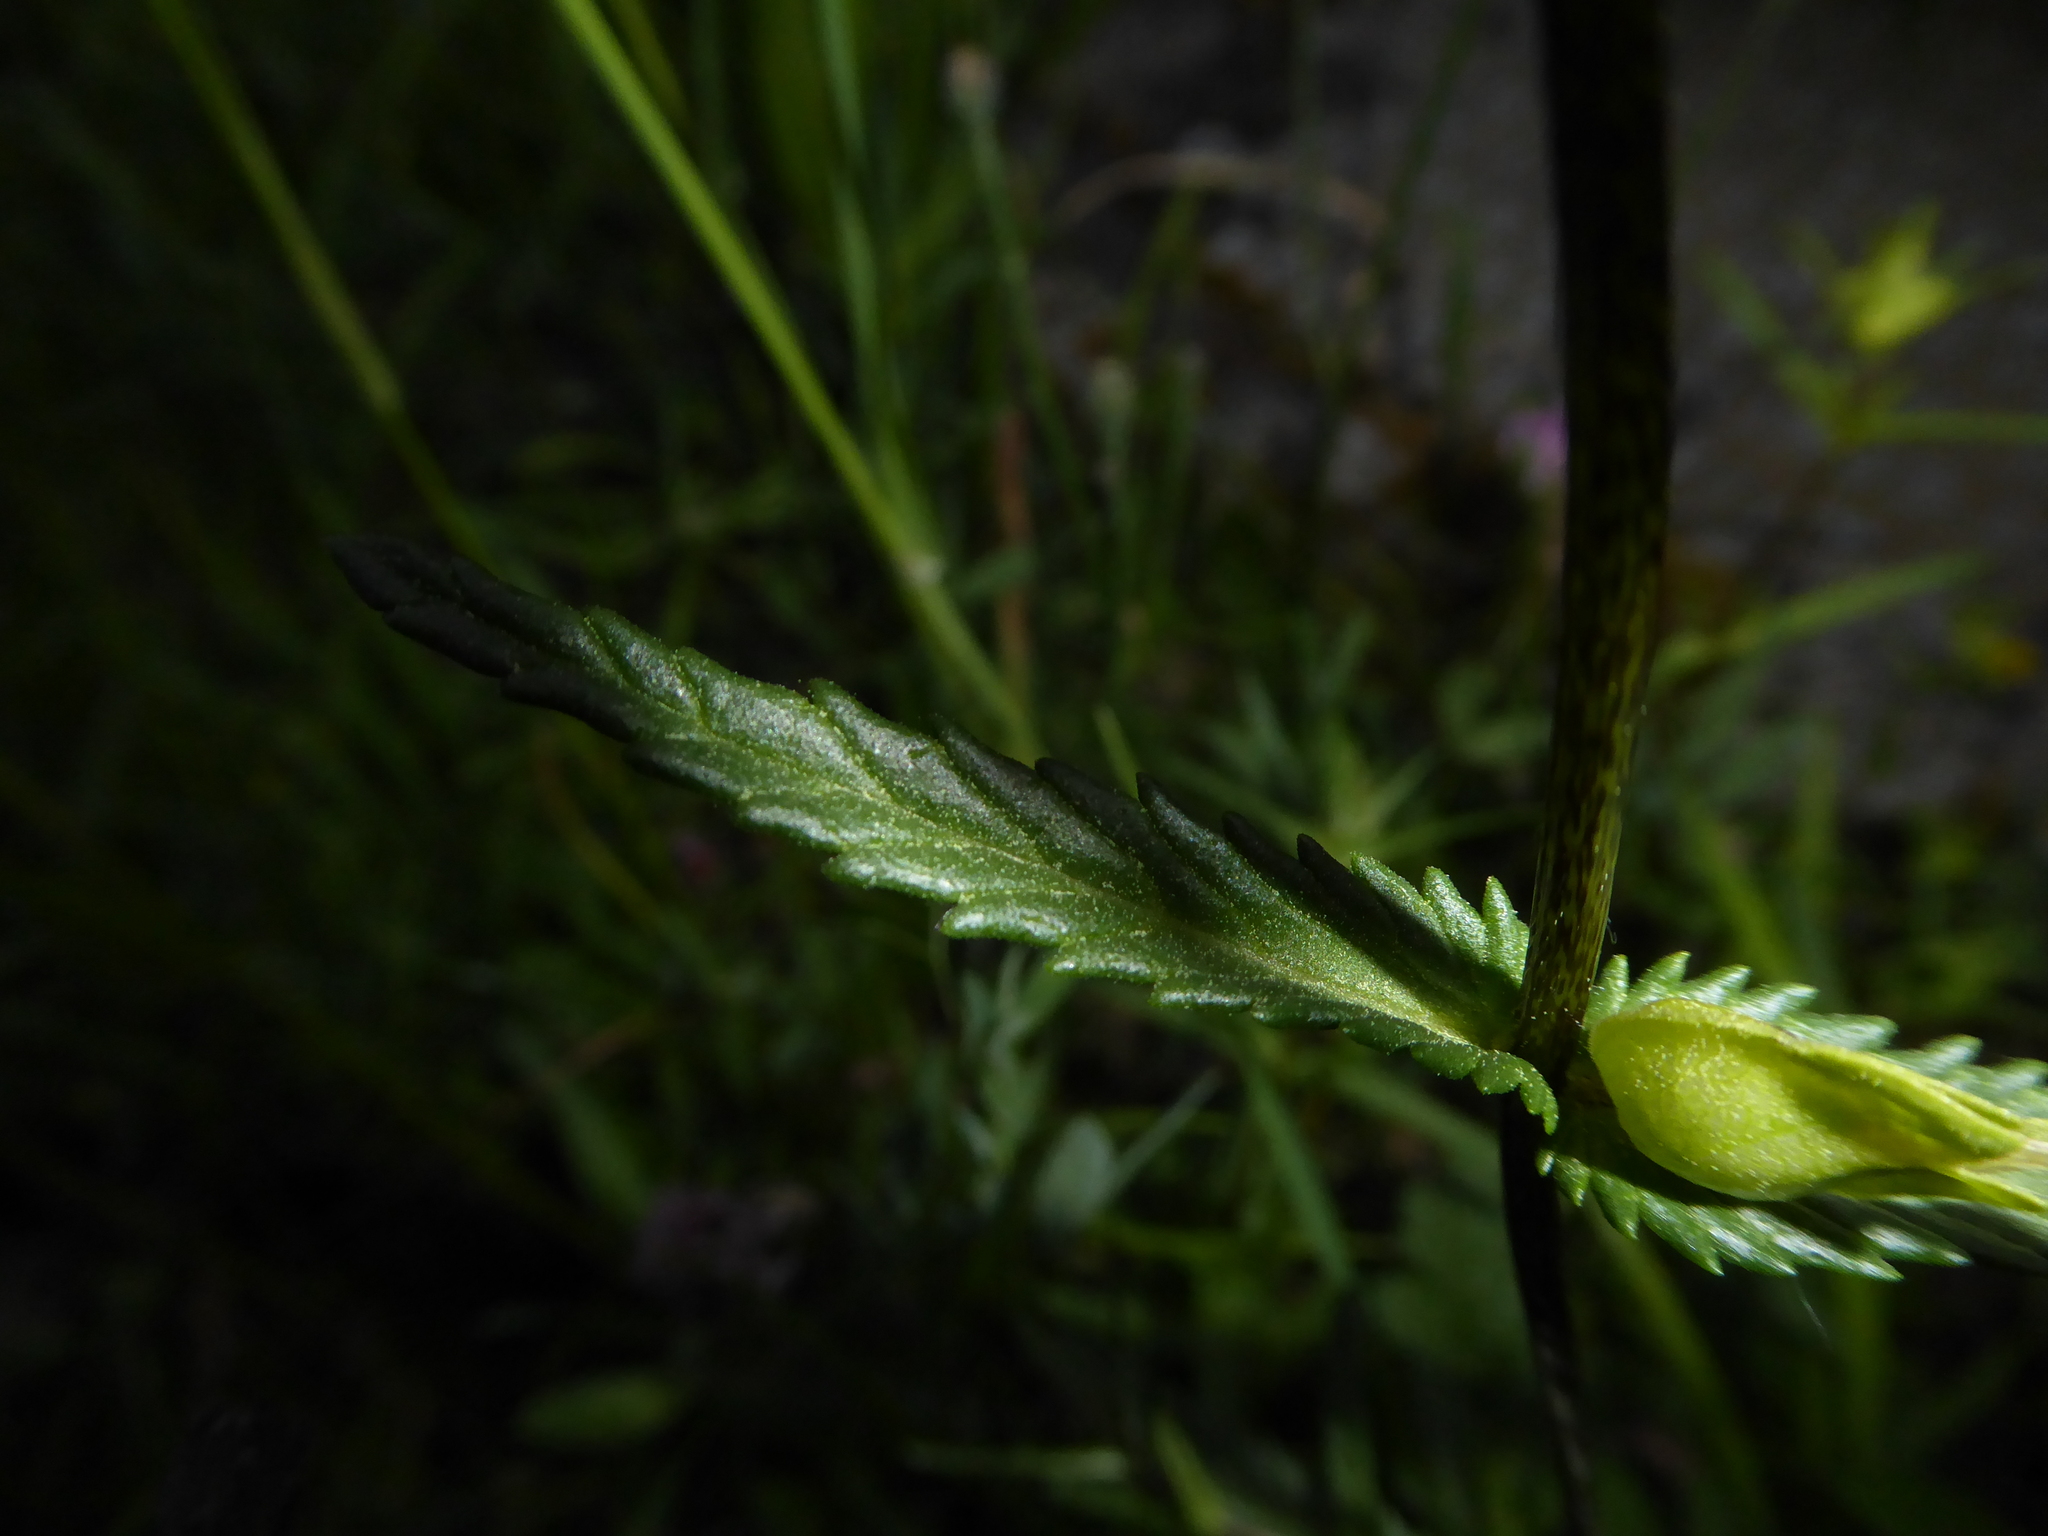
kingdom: Plantae
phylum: Tracheophyta
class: Magnoliopsida
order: Lamiales
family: Orobanchaceae
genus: Rhinanthus
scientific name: Rhinanthus minor
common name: Yellow-rattle
